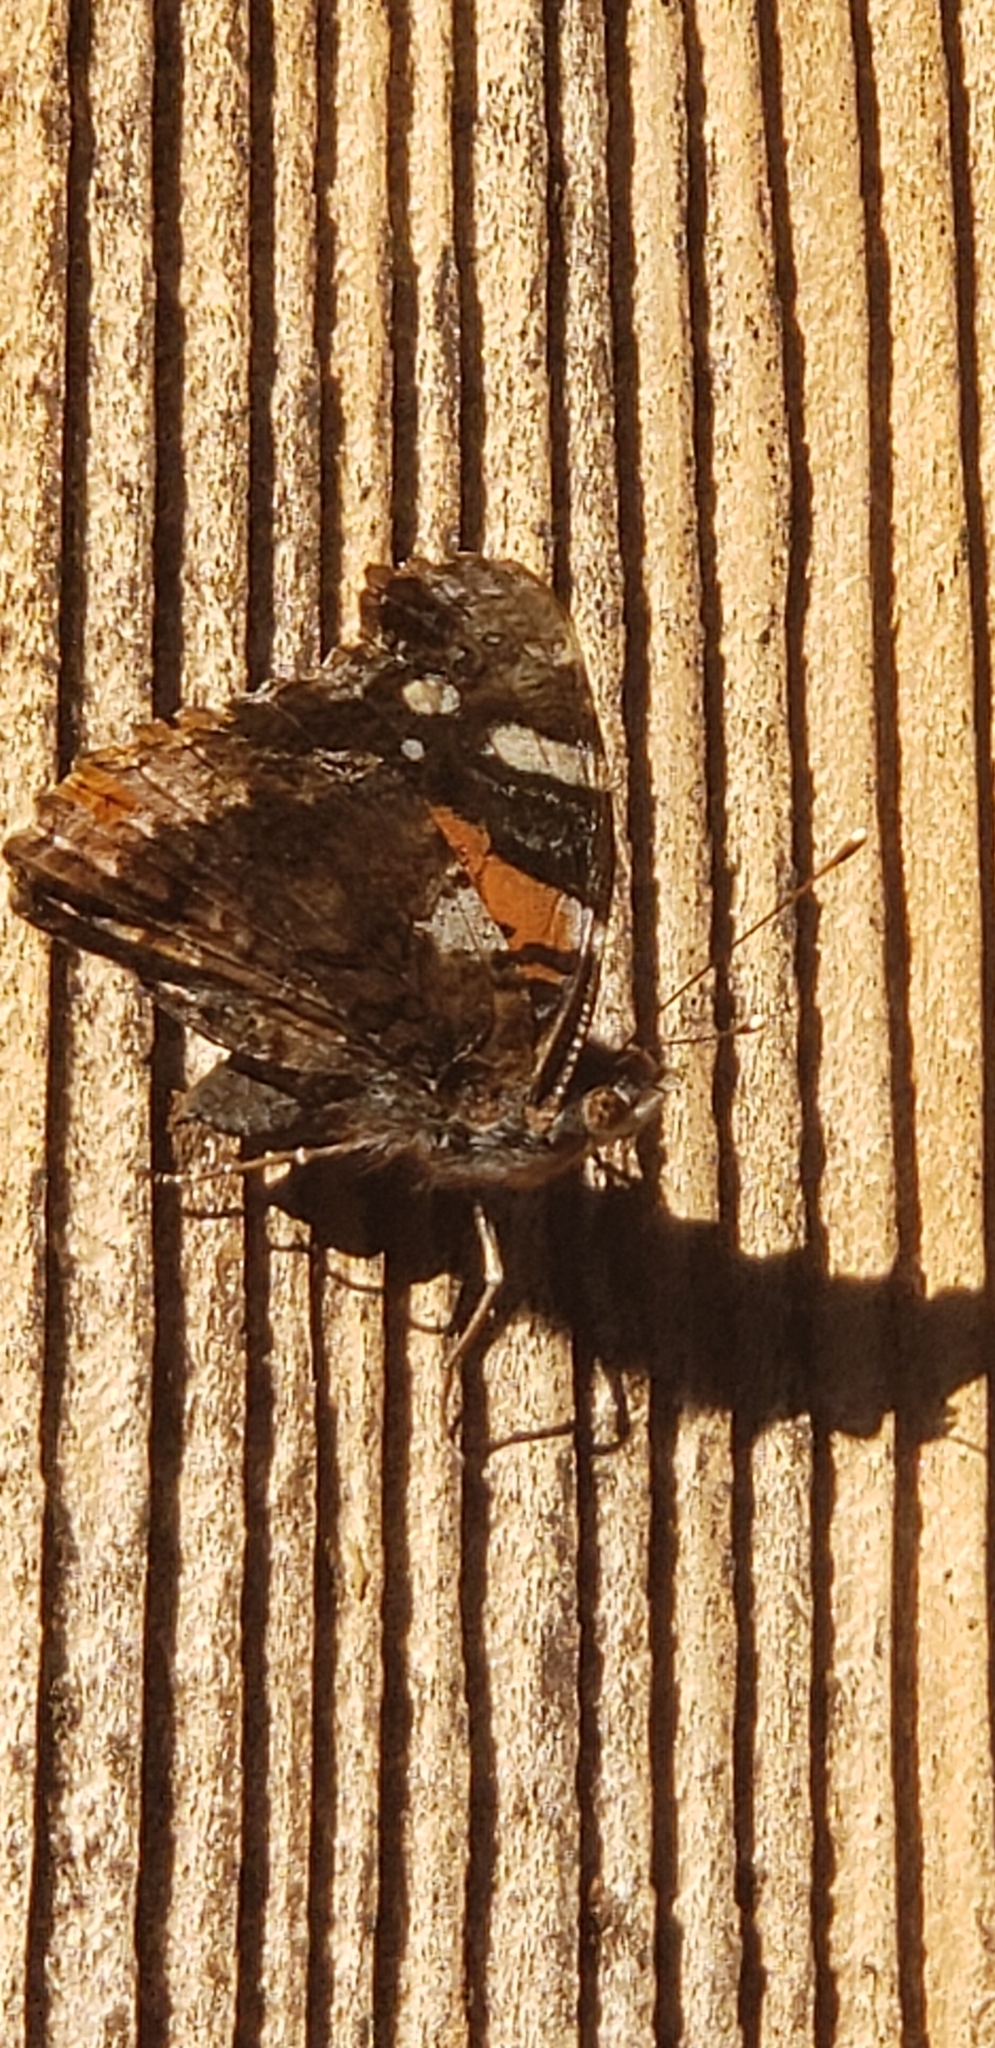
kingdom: Animalia
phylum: Arthropoda
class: Insecta
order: Lepidoptera
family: Nymphalidae
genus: Vanessa
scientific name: Vanessa atalanta
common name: Red admiral
